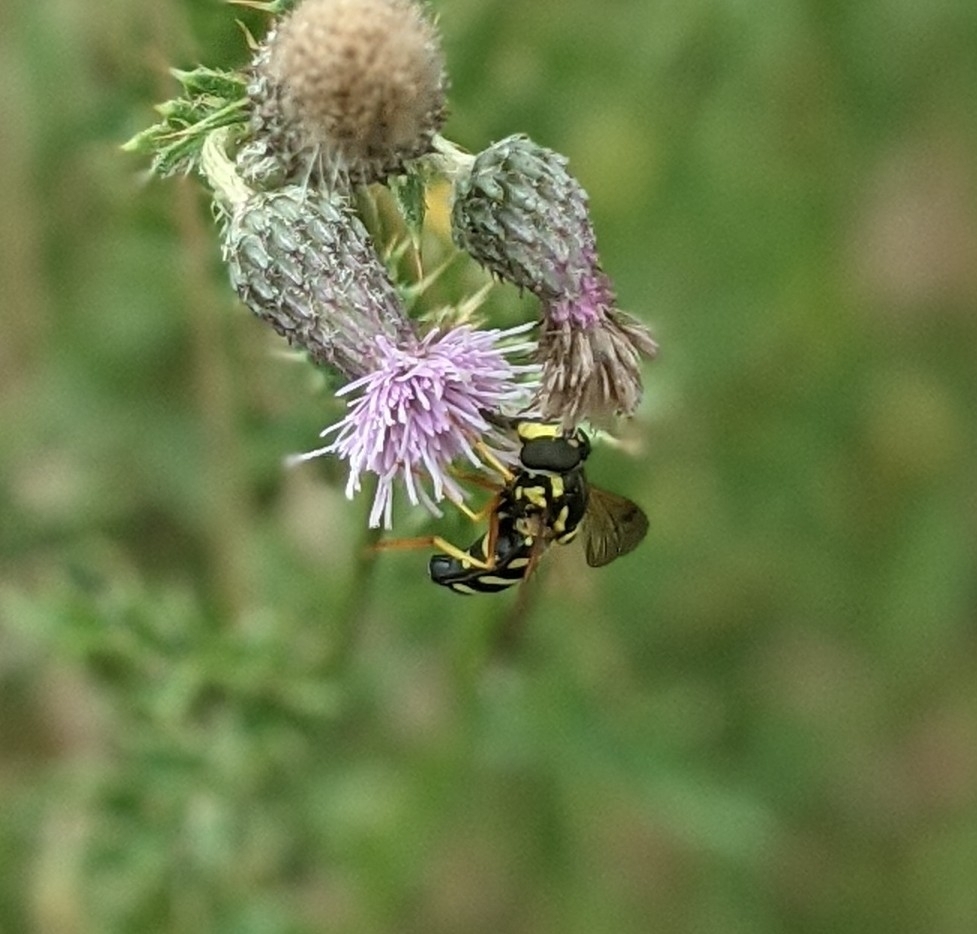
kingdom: Animalia
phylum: Arthropoda
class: Insecta
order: Diptera
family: Syrphidae
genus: Chrysotoxum
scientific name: Chrysotoxum festivum
